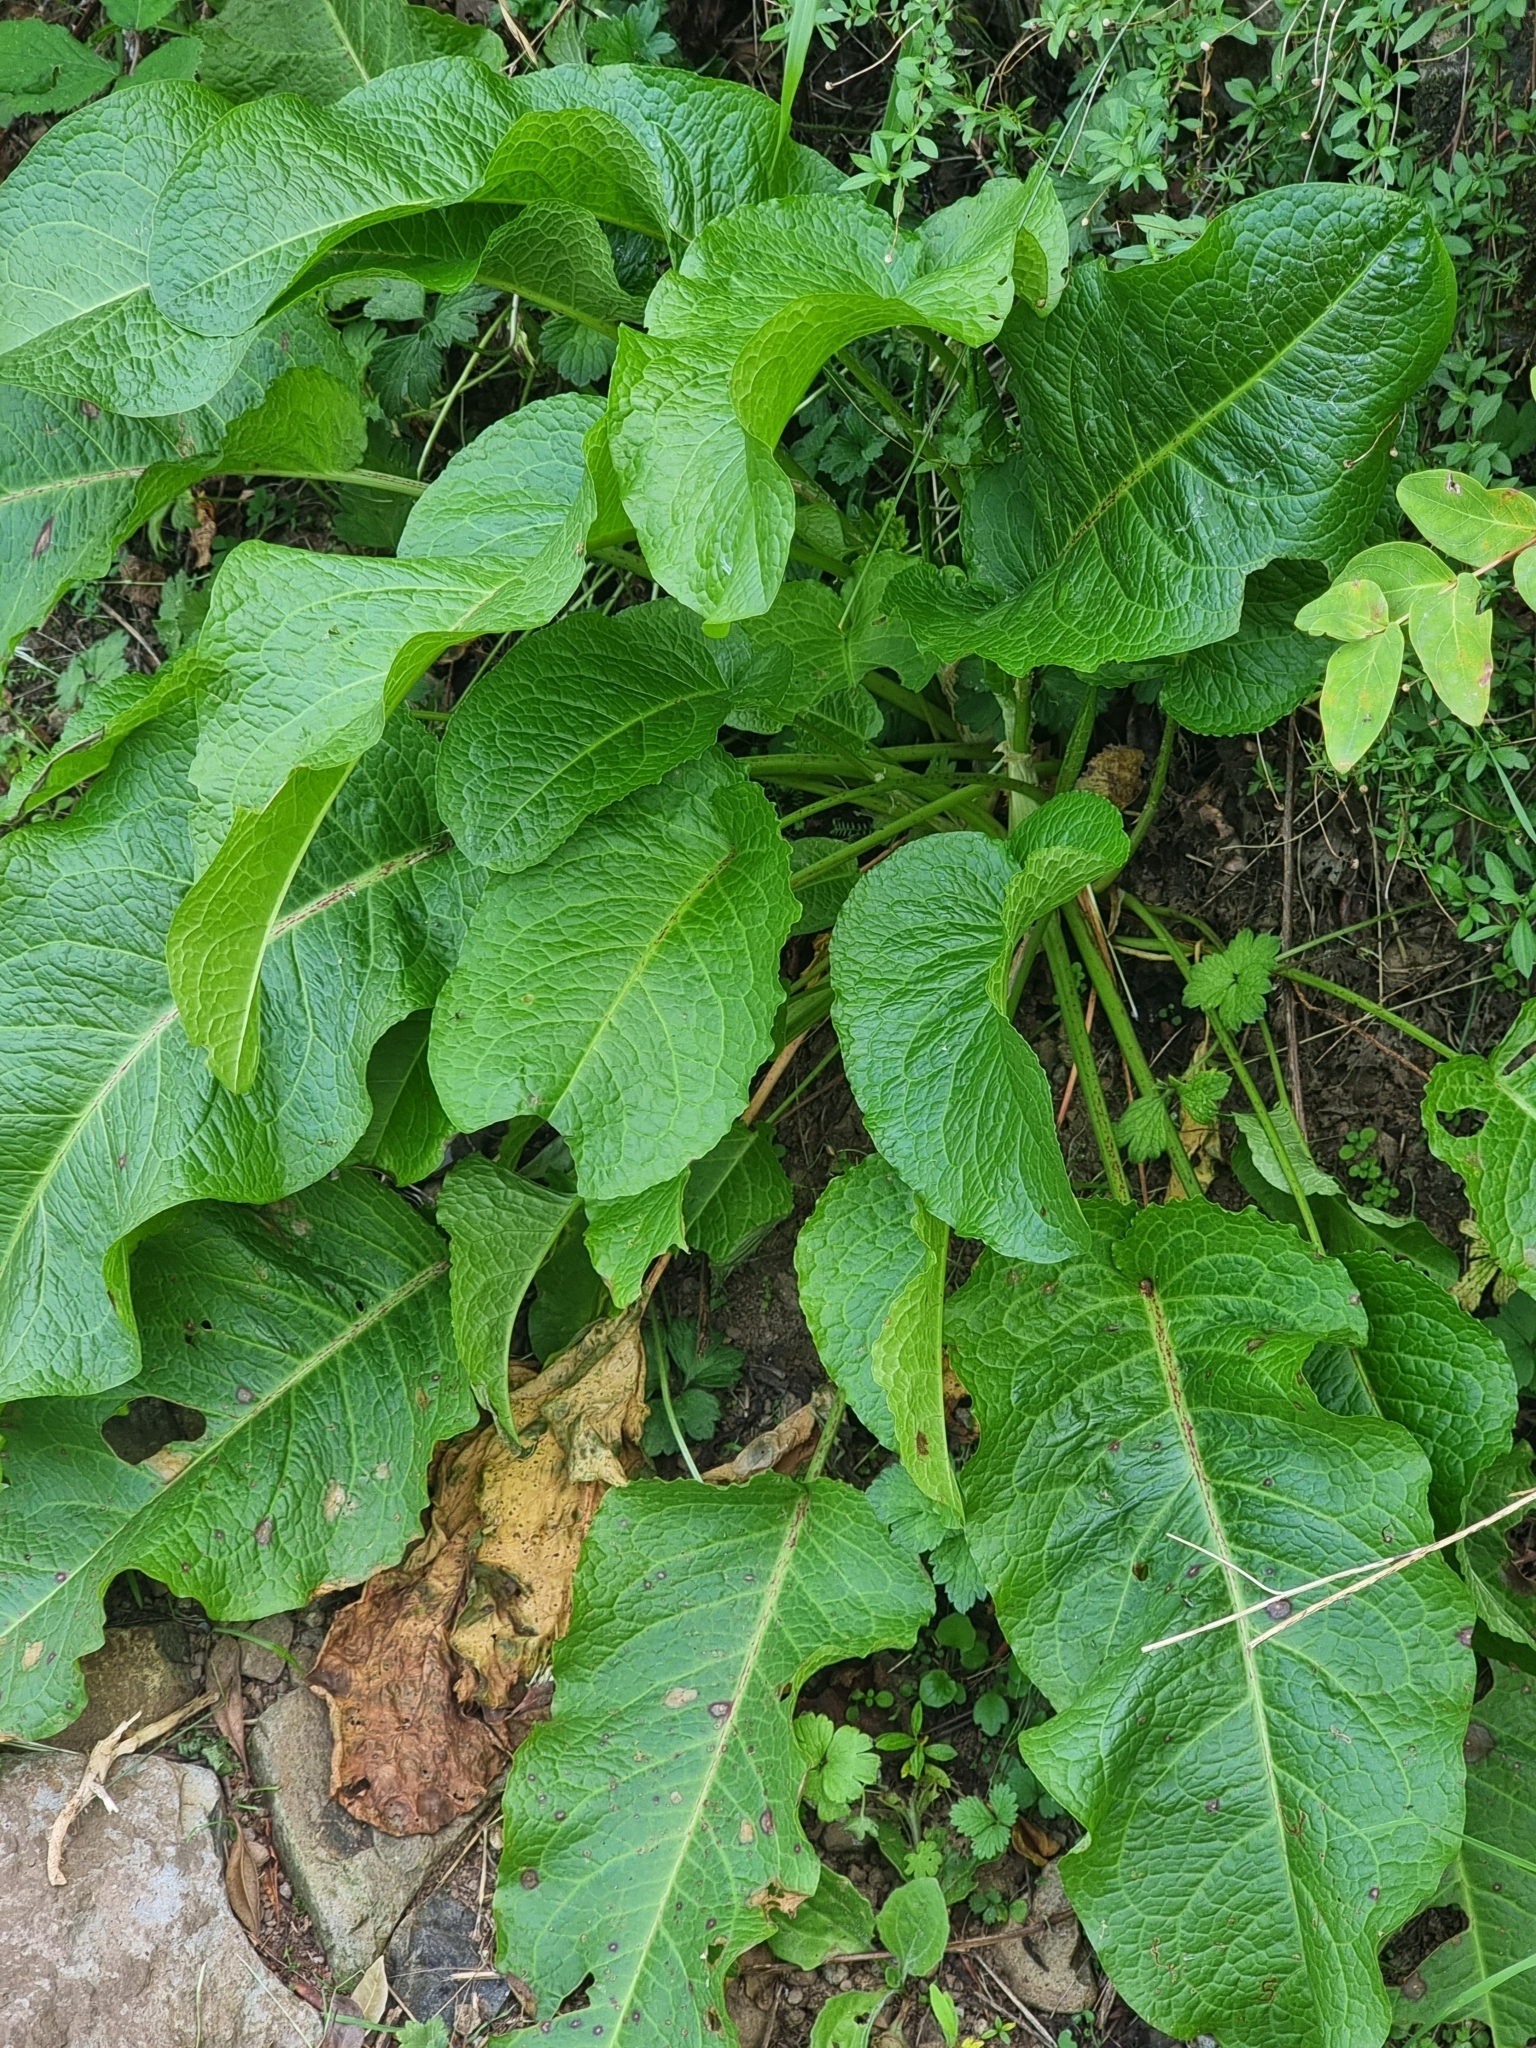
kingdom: Plantae
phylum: Tracheophyta
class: Magnoliopsida
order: Caryophyllales
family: Polygonaceae
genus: Rumex
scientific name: Rumex obtusifolius
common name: Bitter dock
